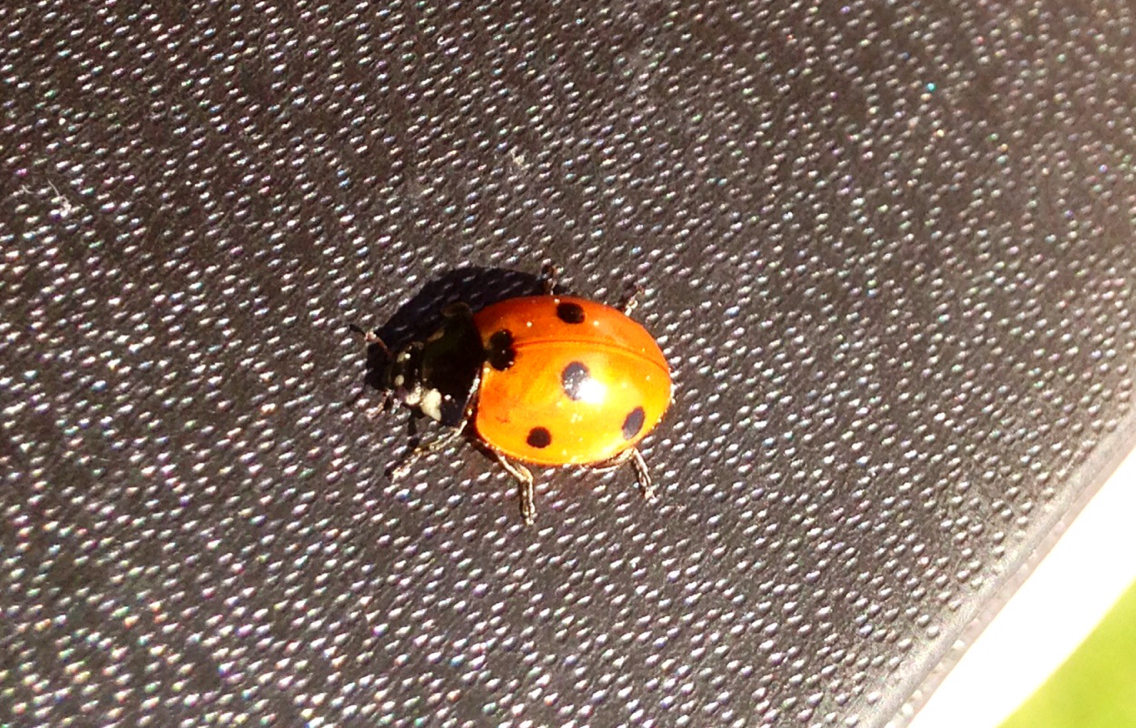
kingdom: Animalia
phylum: Arthropoda
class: Insecta
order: Coleoptera
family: Coccinellidae
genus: Coccinella
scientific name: Coccinella septempunctata
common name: Sevenspotted lady beetle
